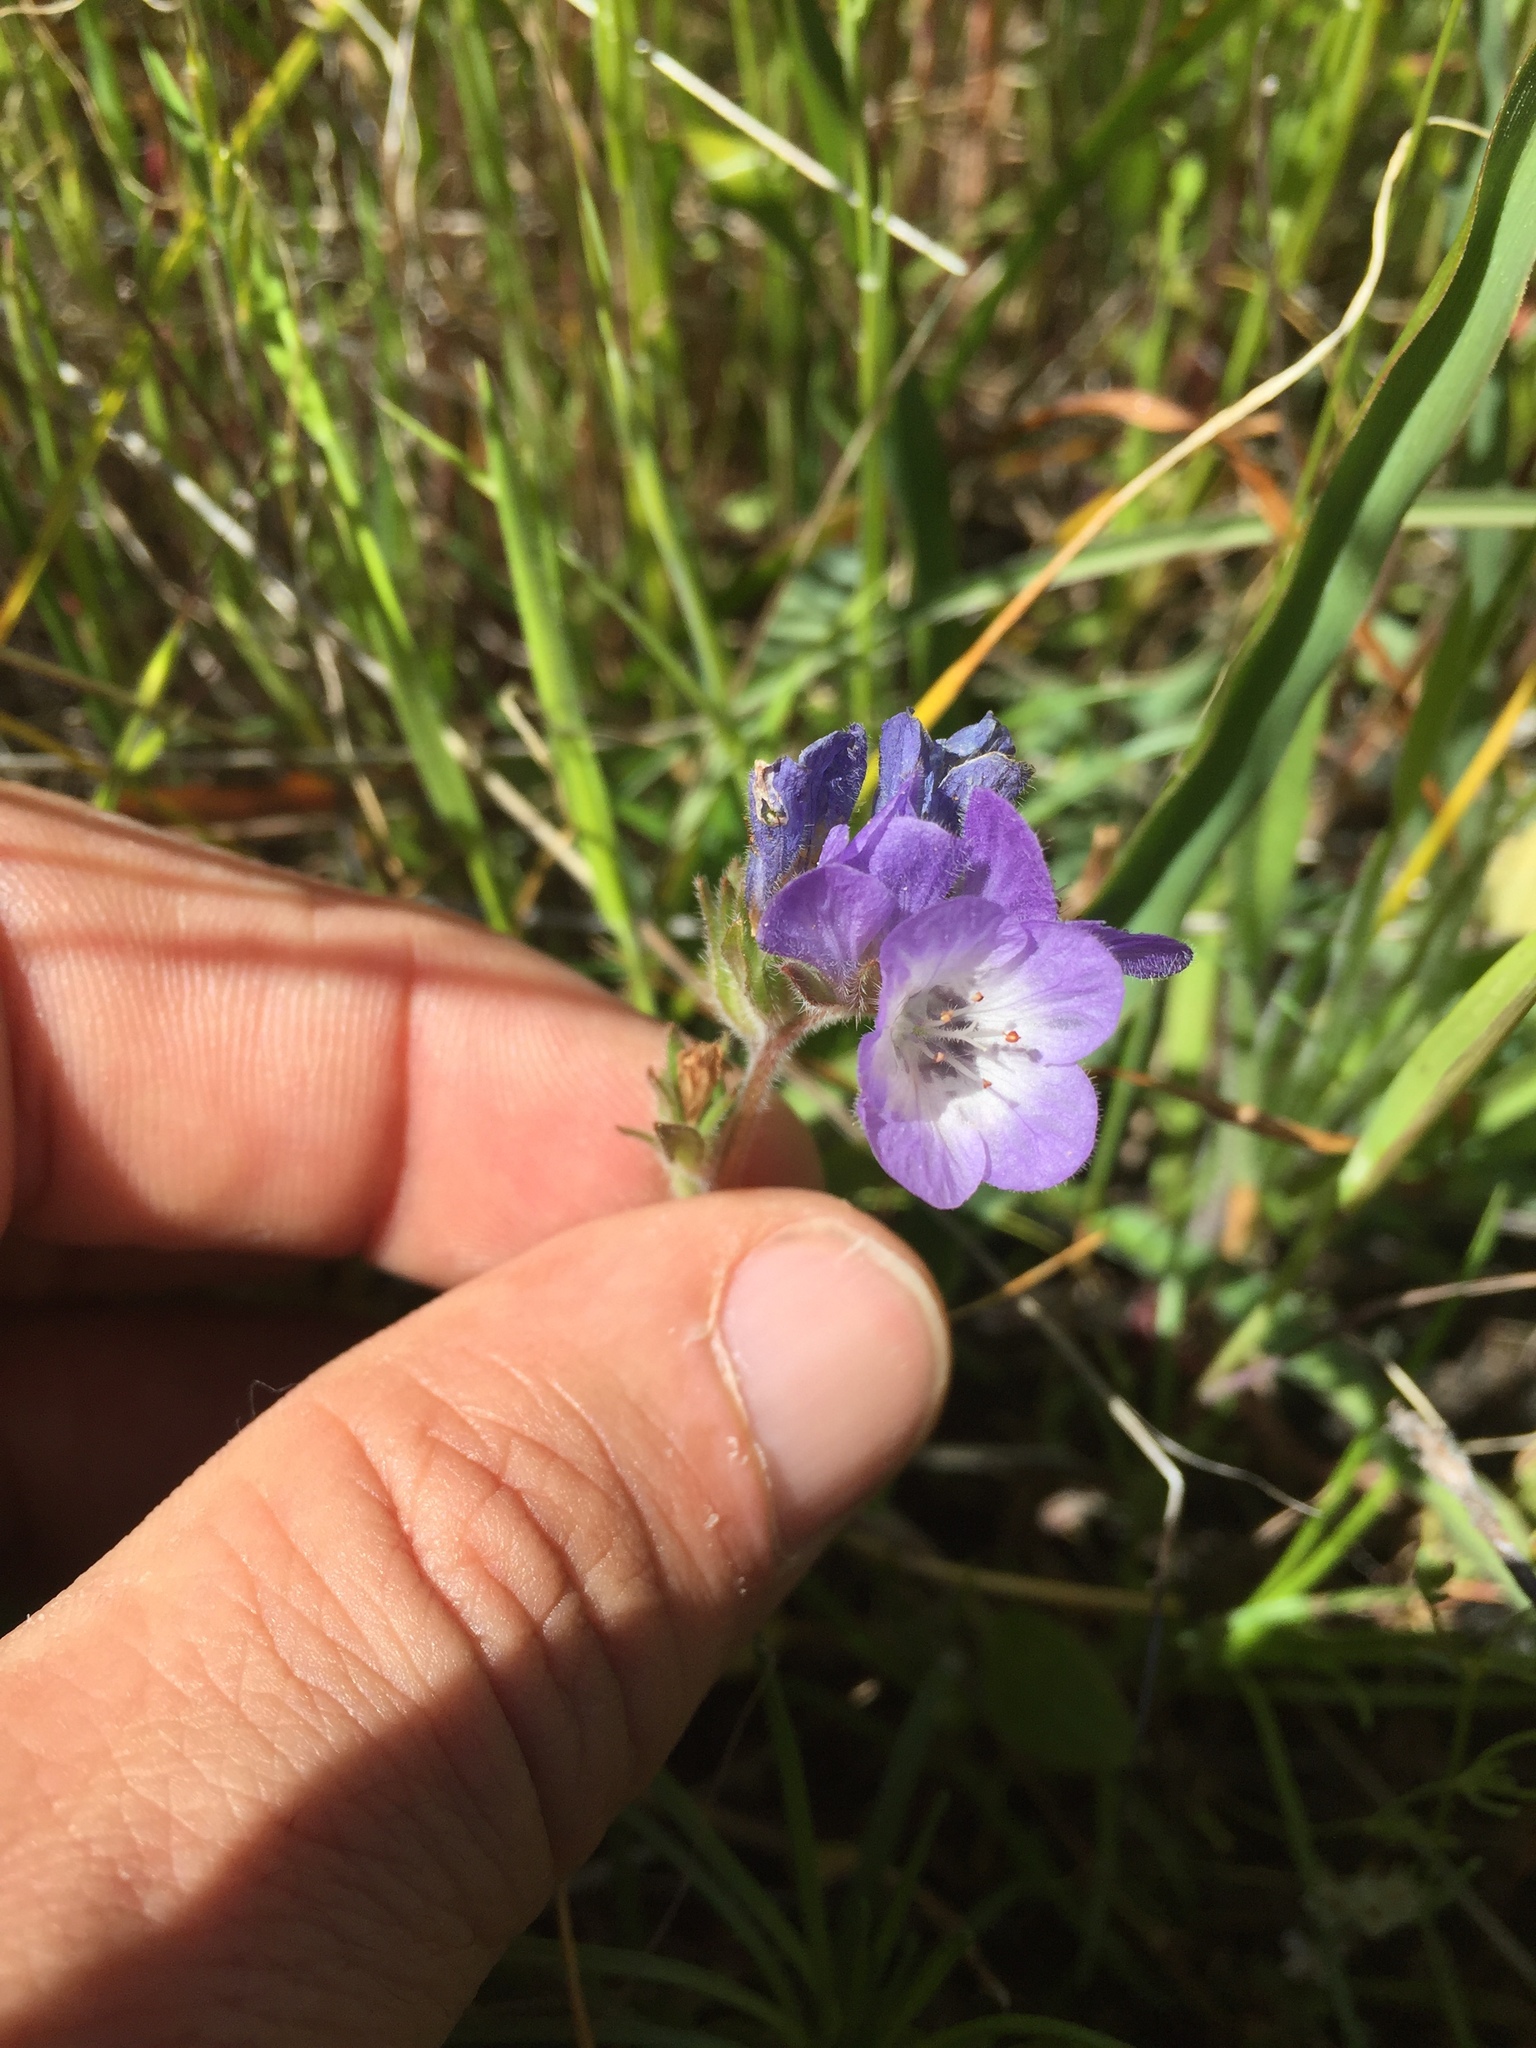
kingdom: Plantae
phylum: Tracheophyta
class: Magnoliopsida
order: Boraginales
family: Hydrophyllaceae
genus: Phacelia
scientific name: Phacelia divaricata
